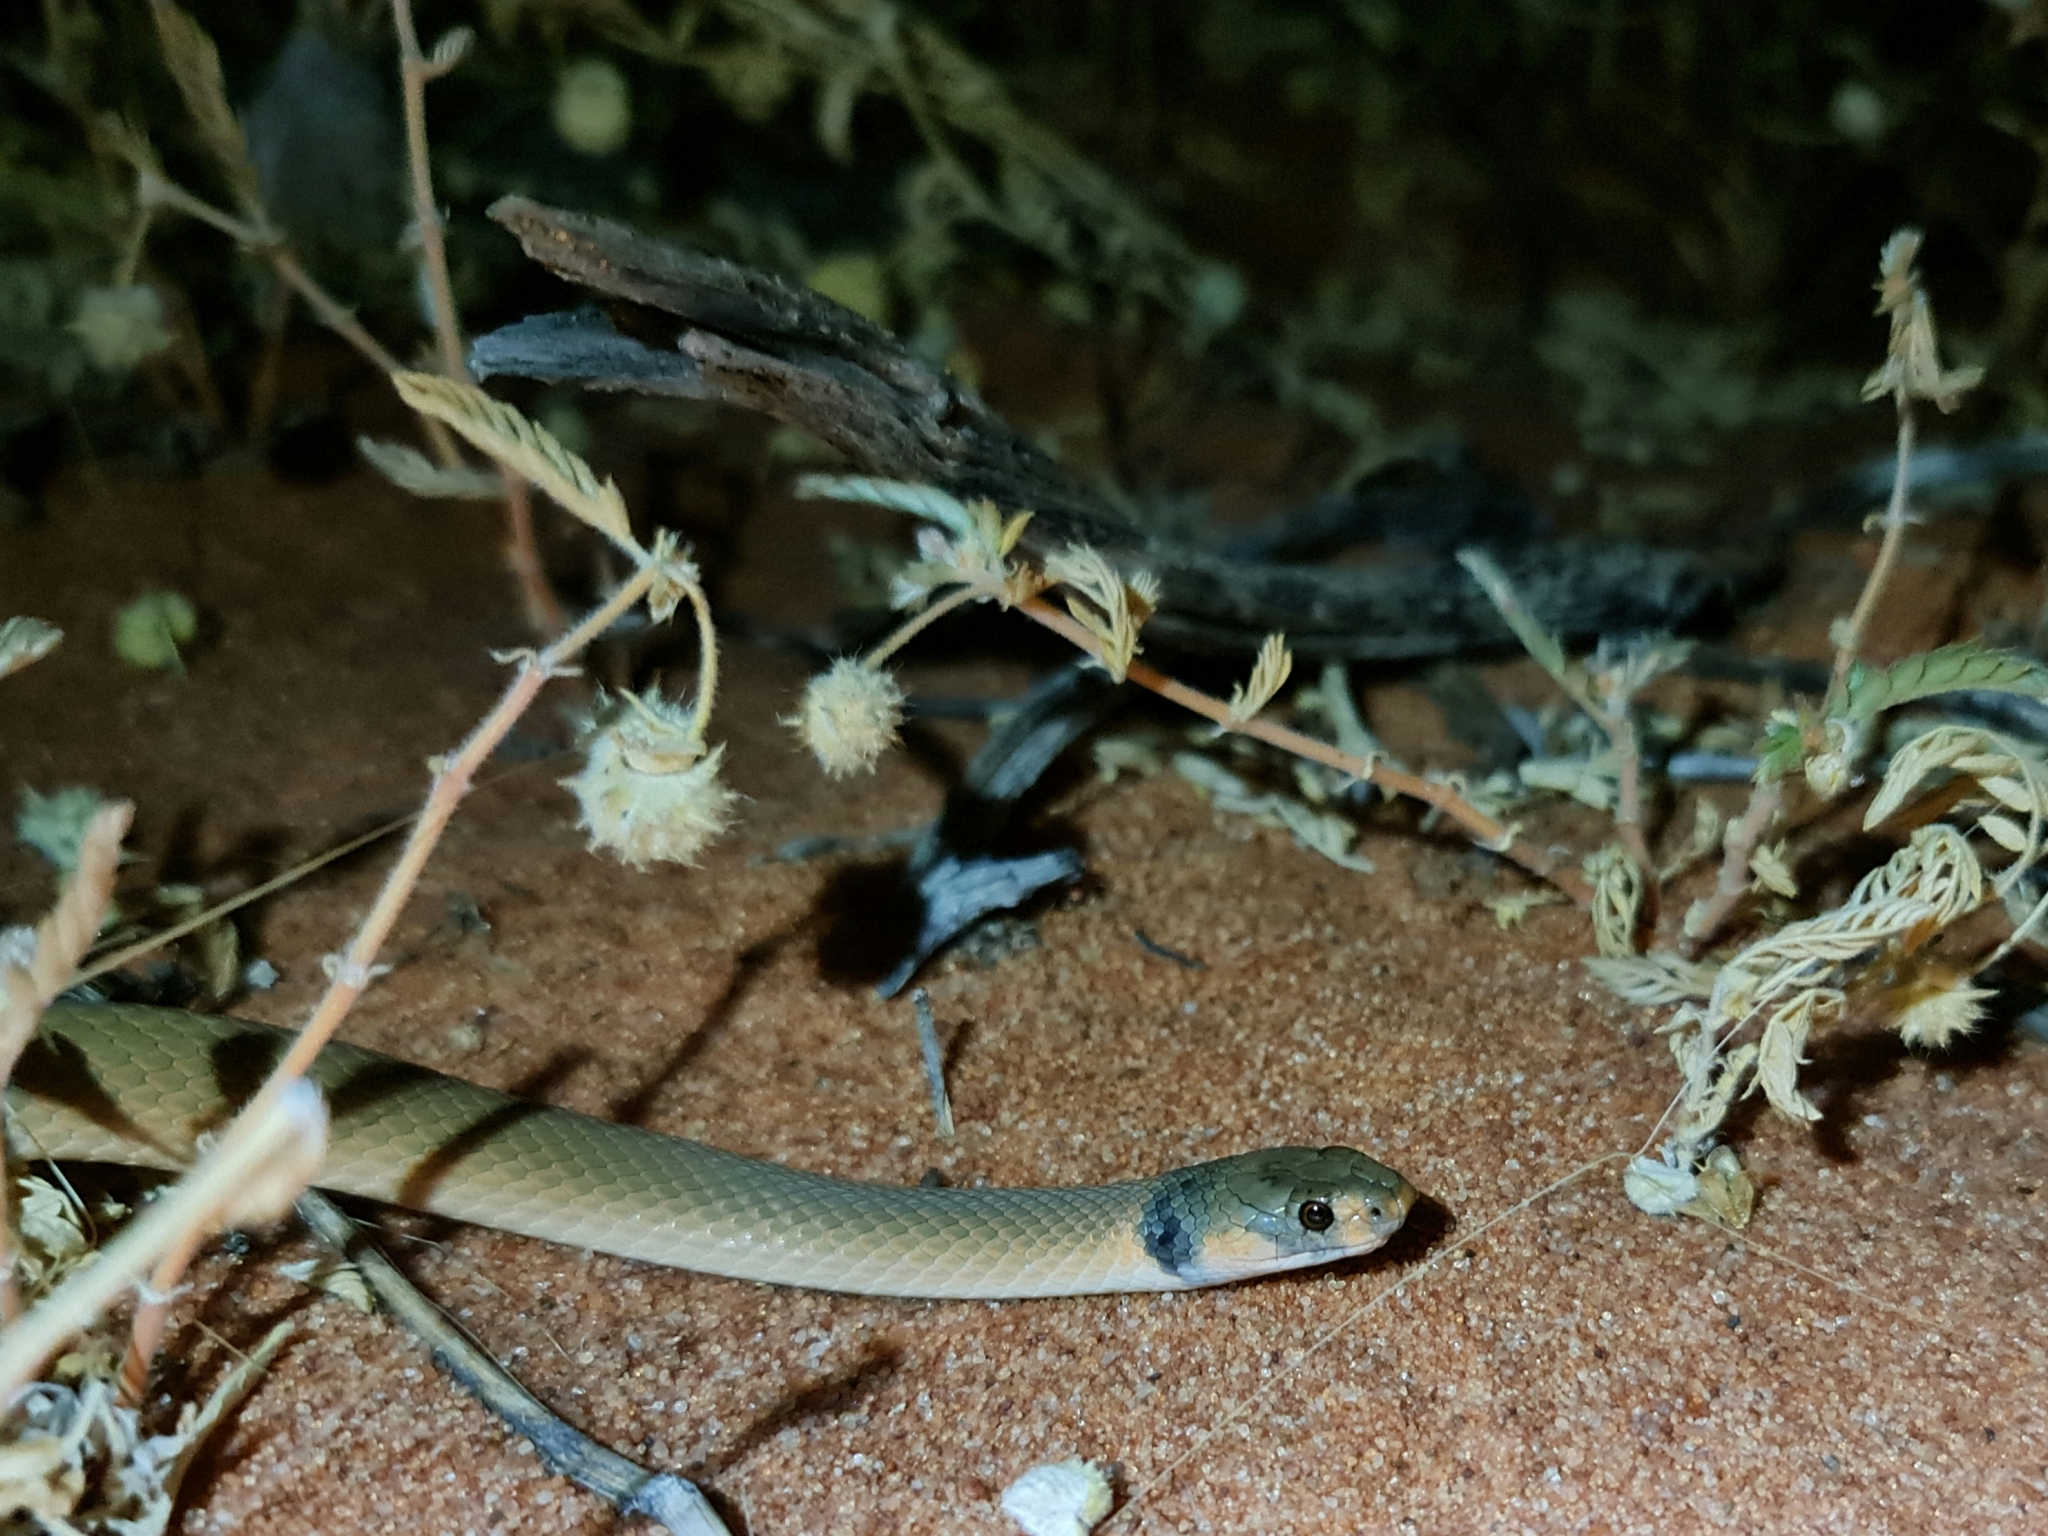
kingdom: Animalia
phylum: Chordata
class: Squamata
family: Elapidae
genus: Pseudonaja
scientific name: Pseudonaja modesta
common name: Ringed brown snake
